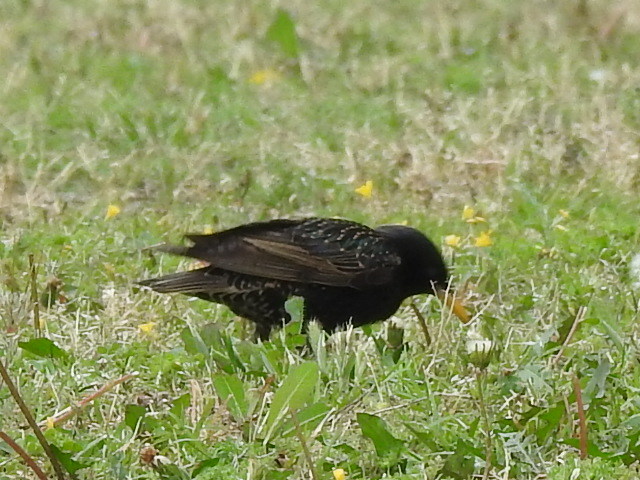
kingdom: Animalia
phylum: Chordata
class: Aves
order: Passeriformes
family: Sturnidae
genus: Sturnus
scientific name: Sturnus vulgaris
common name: Common starling
